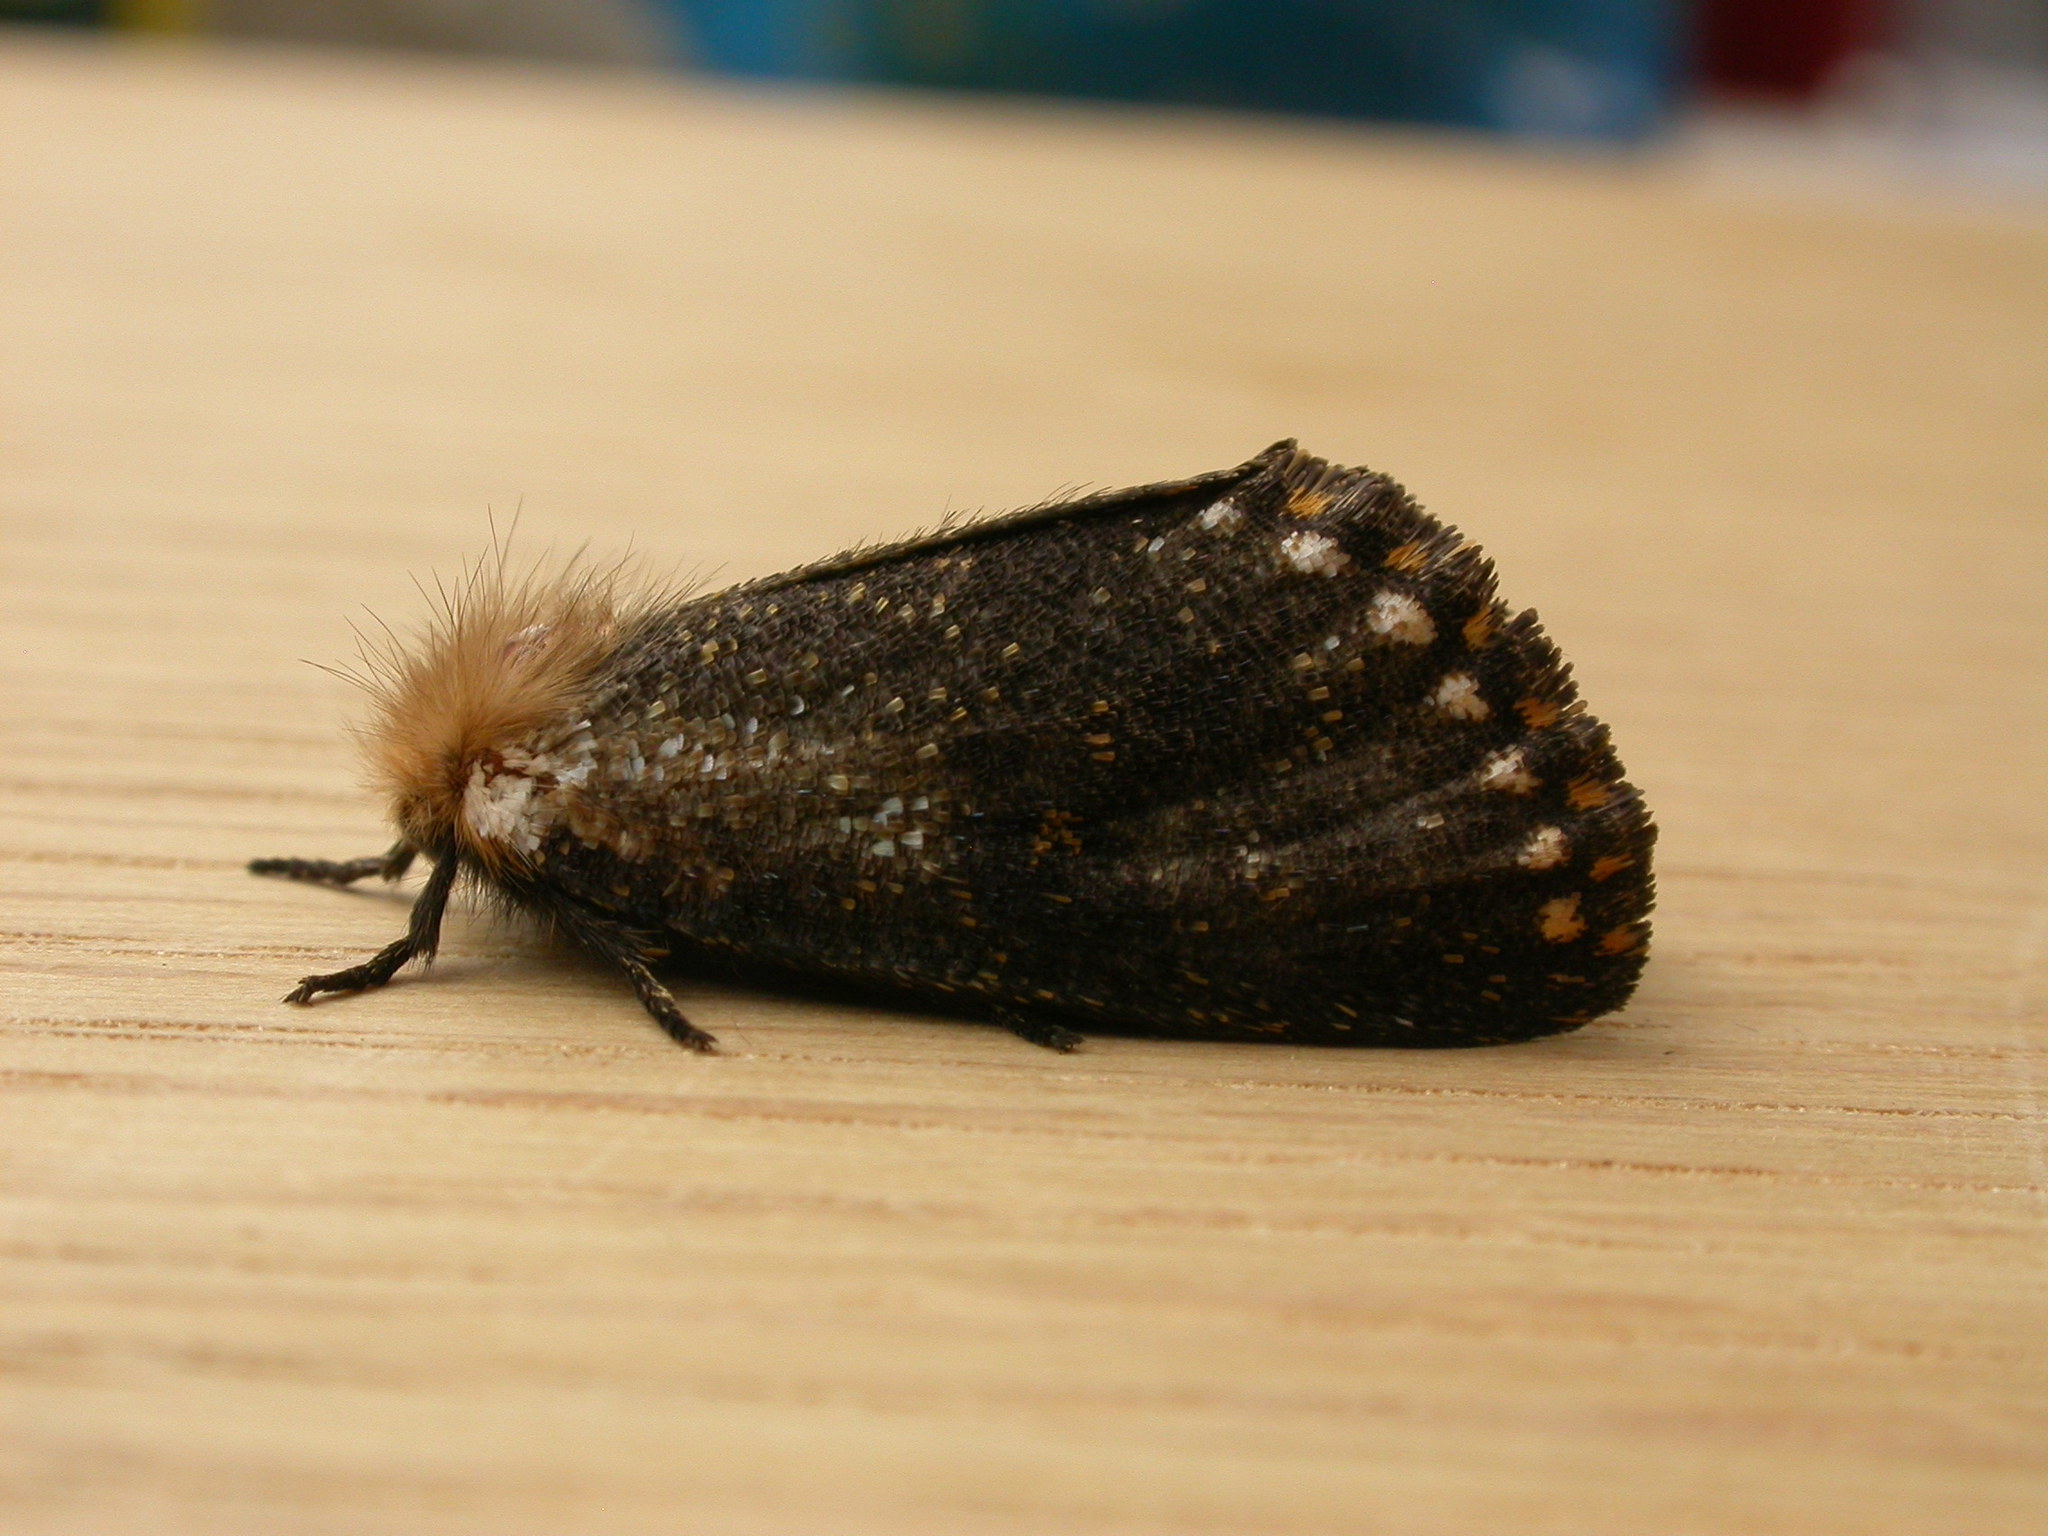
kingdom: Animalia
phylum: Arthropoda
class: Insecta
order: Lepidoptera
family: Notodontidae
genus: Epicoma
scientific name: Epicoma contristis
